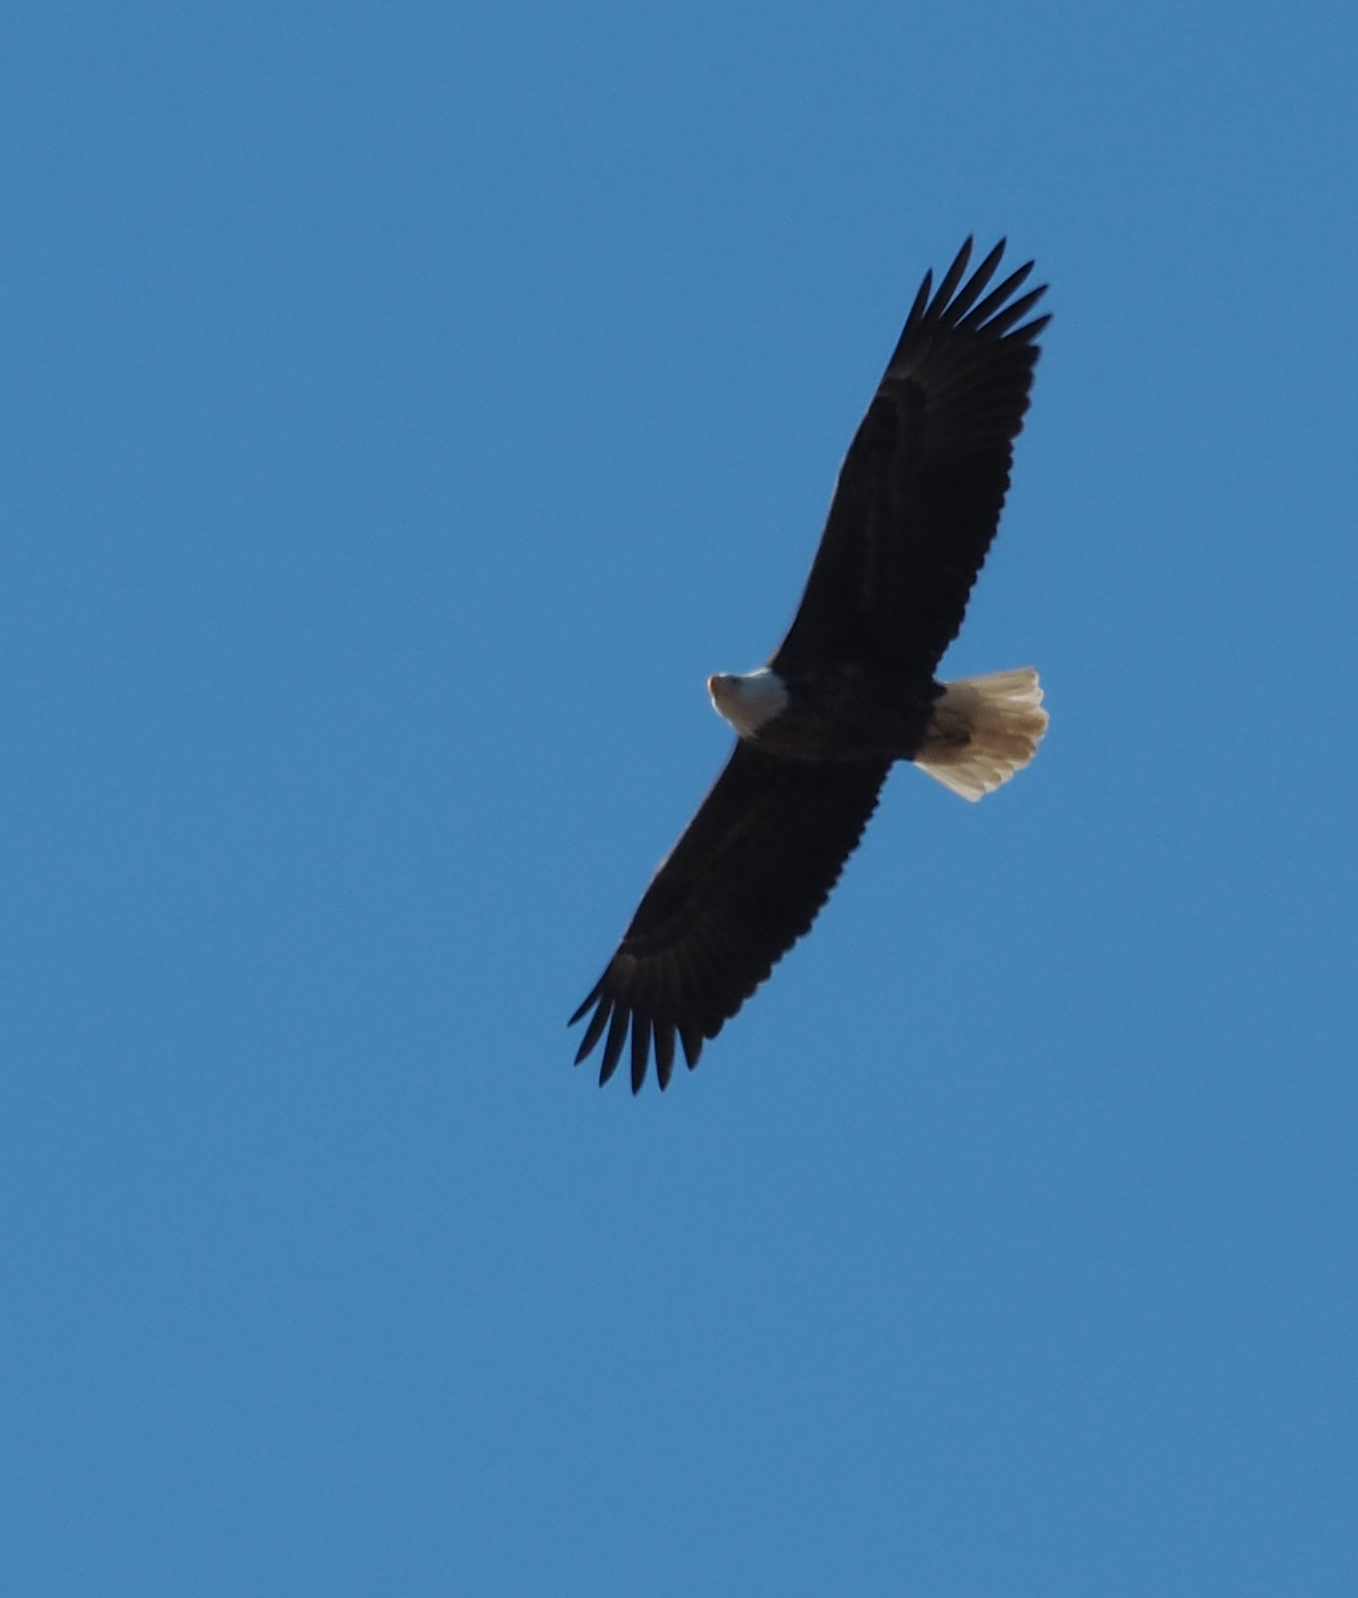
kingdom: Animalia
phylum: Chordata
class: Aves
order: Accipitriformes
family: Accipitridae
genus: Haliaeetus
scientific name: Haliaeetus leucocephalus
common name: Bald eagle
